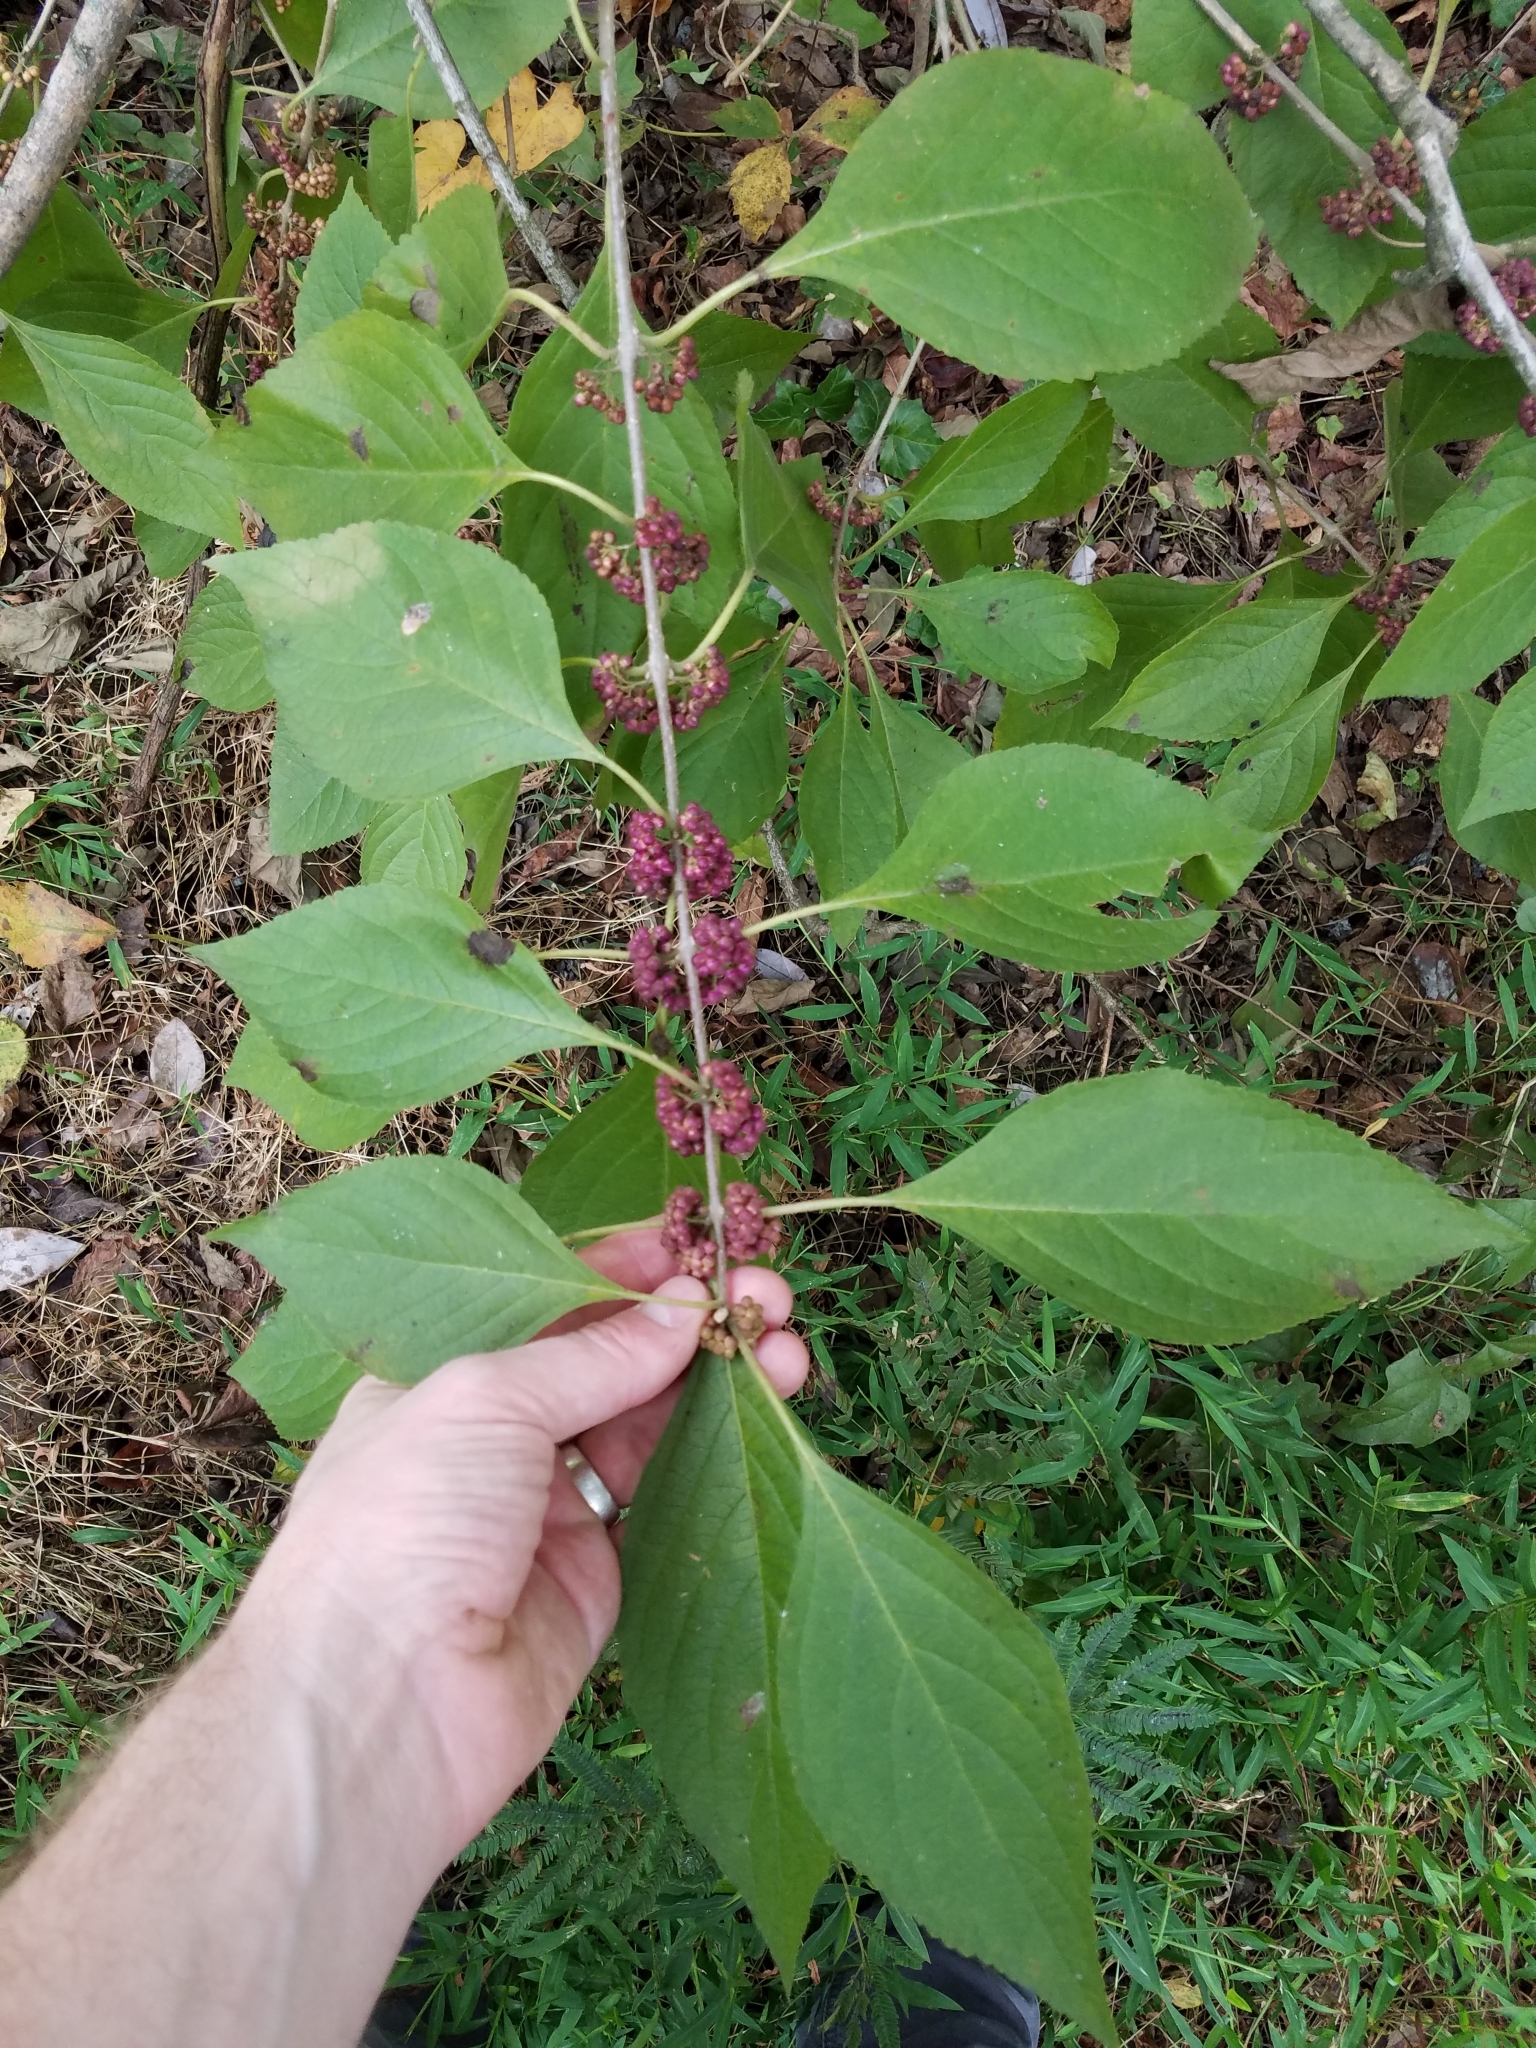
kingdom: Plantae
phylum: Tracheophyta
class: Magnoliopsida
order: Lamiales
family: Lamiaceae
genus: Callicarpa
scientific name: Callicarpa americana
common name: American beautyberry
